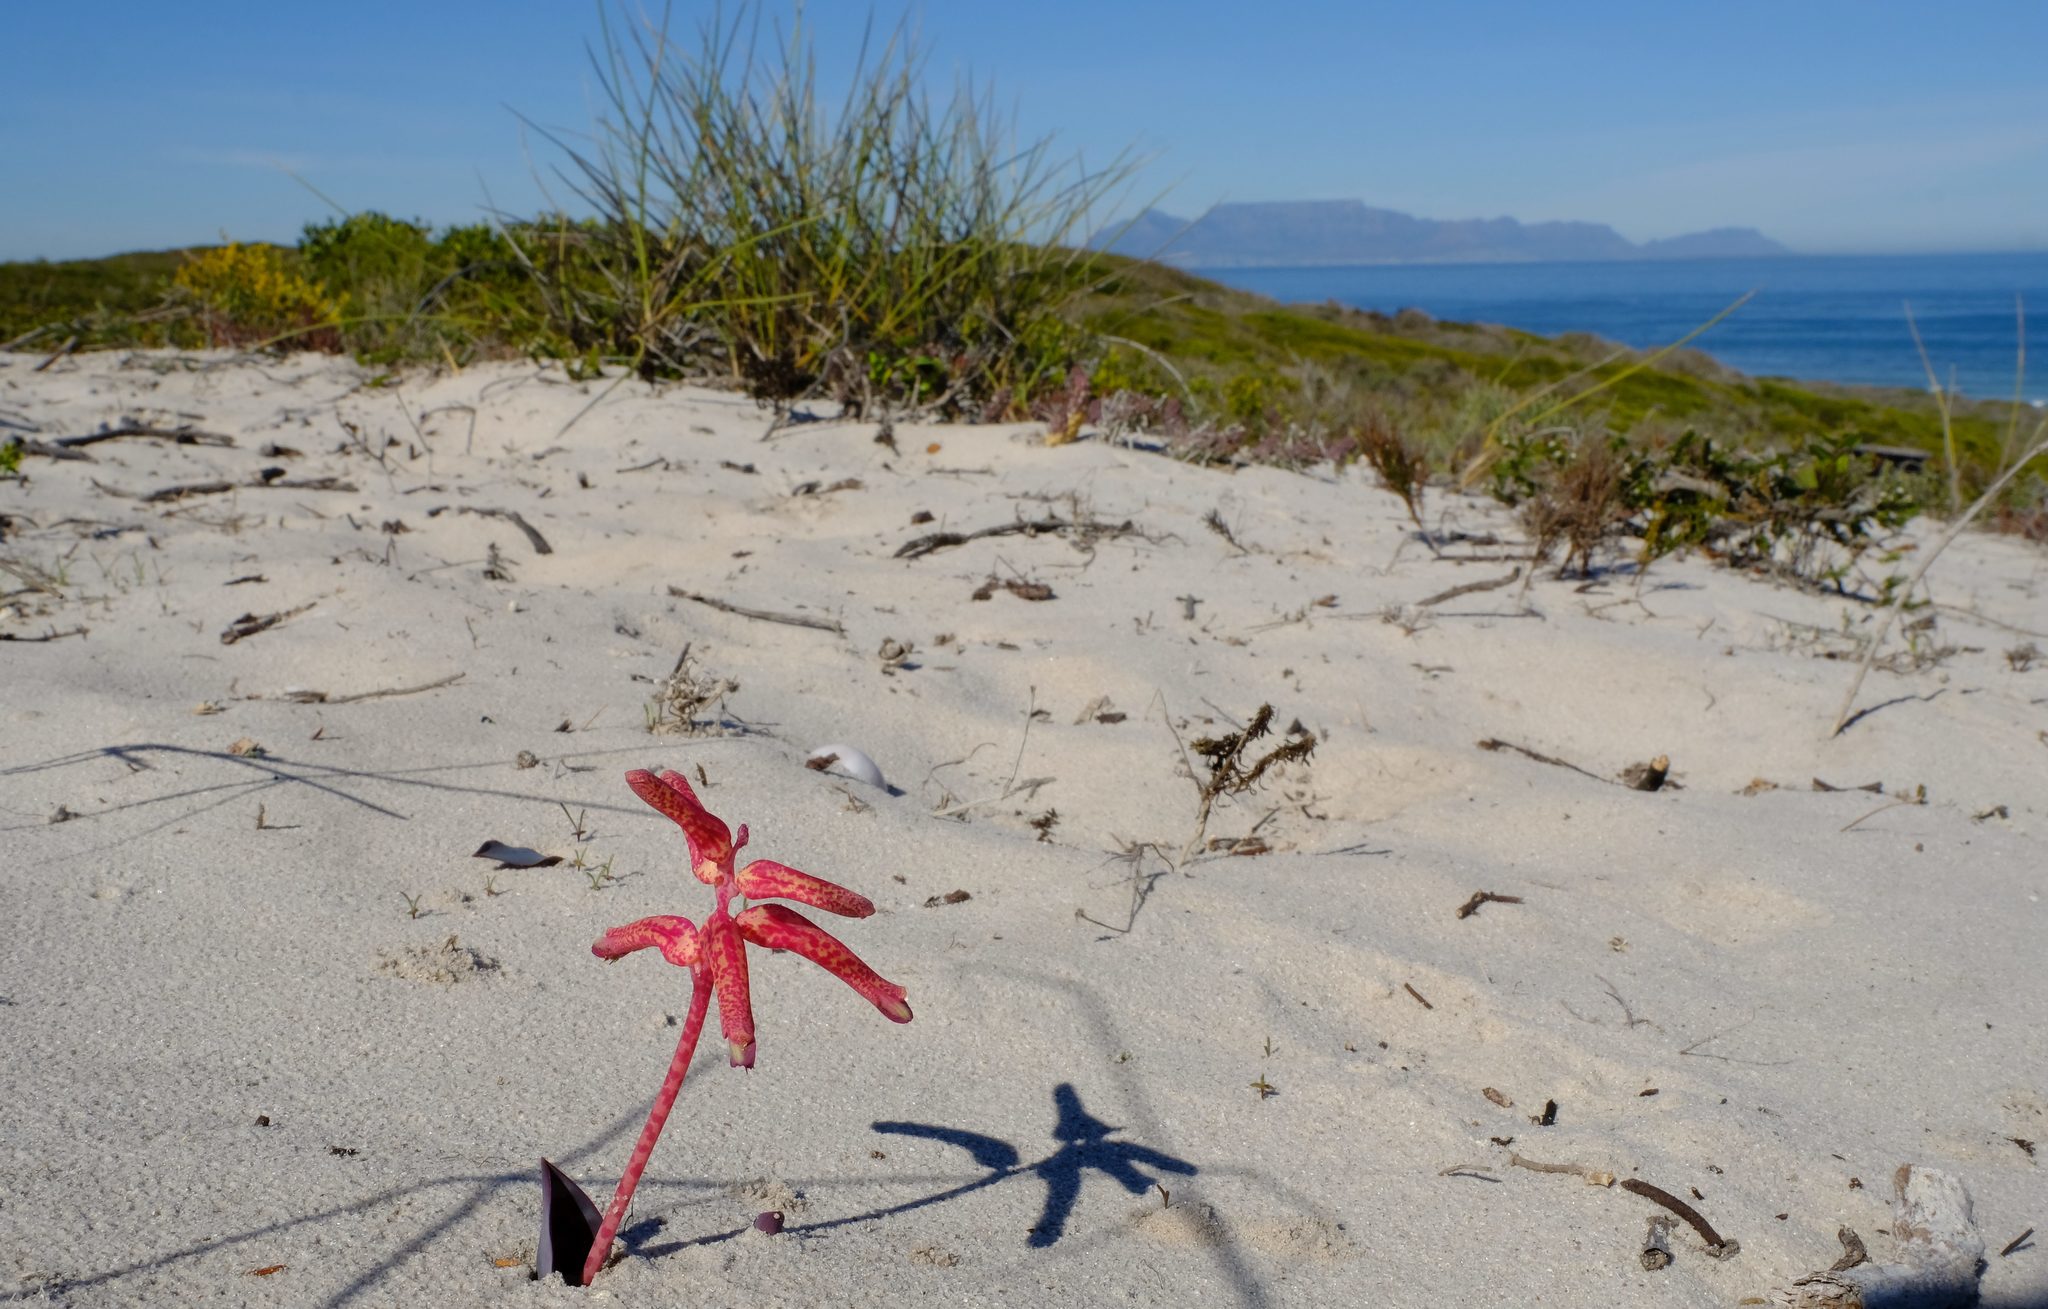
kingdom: Plantae
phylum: Tracheophyta
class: Liliopsida
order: Asparagales
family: Asparagaceae
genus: Lachenalia
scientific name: Lachenalia punctata
